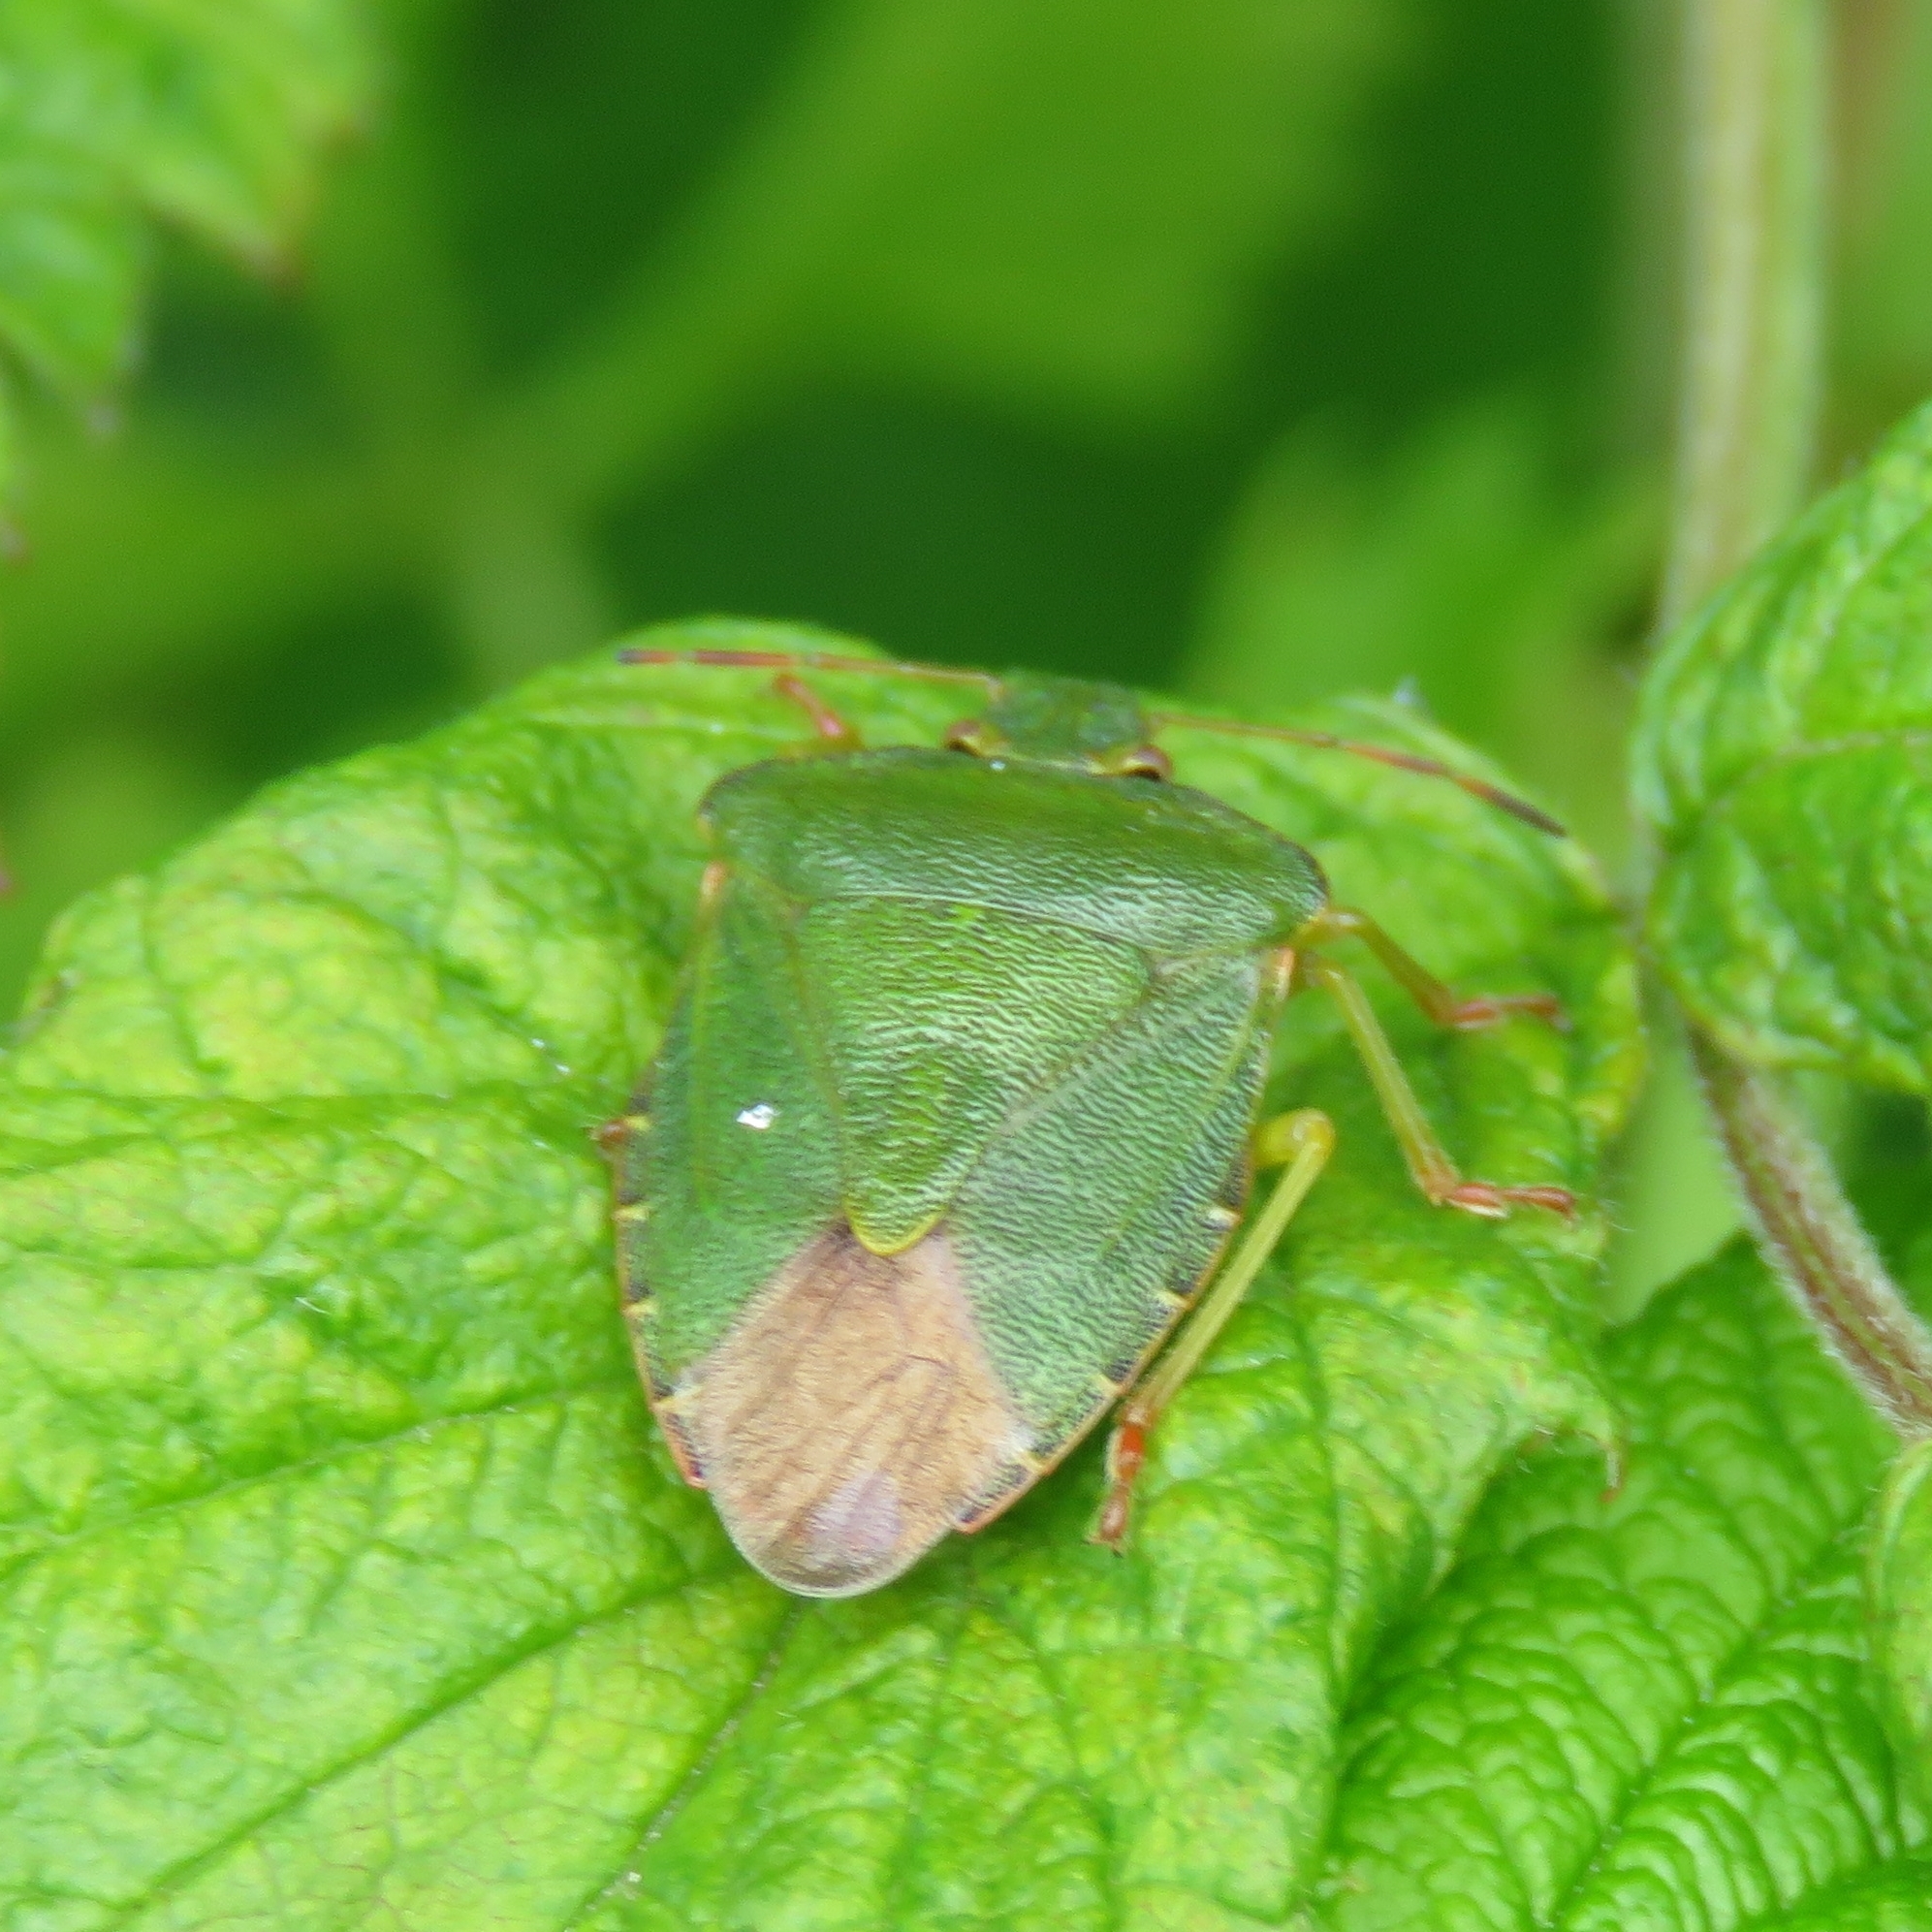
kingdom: Animalia
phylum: Arthropoda
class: Insecta
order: Hemiptera
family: Pentatomidae
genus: Palomena
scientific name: Palomena prasina
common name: Green shieldbug
